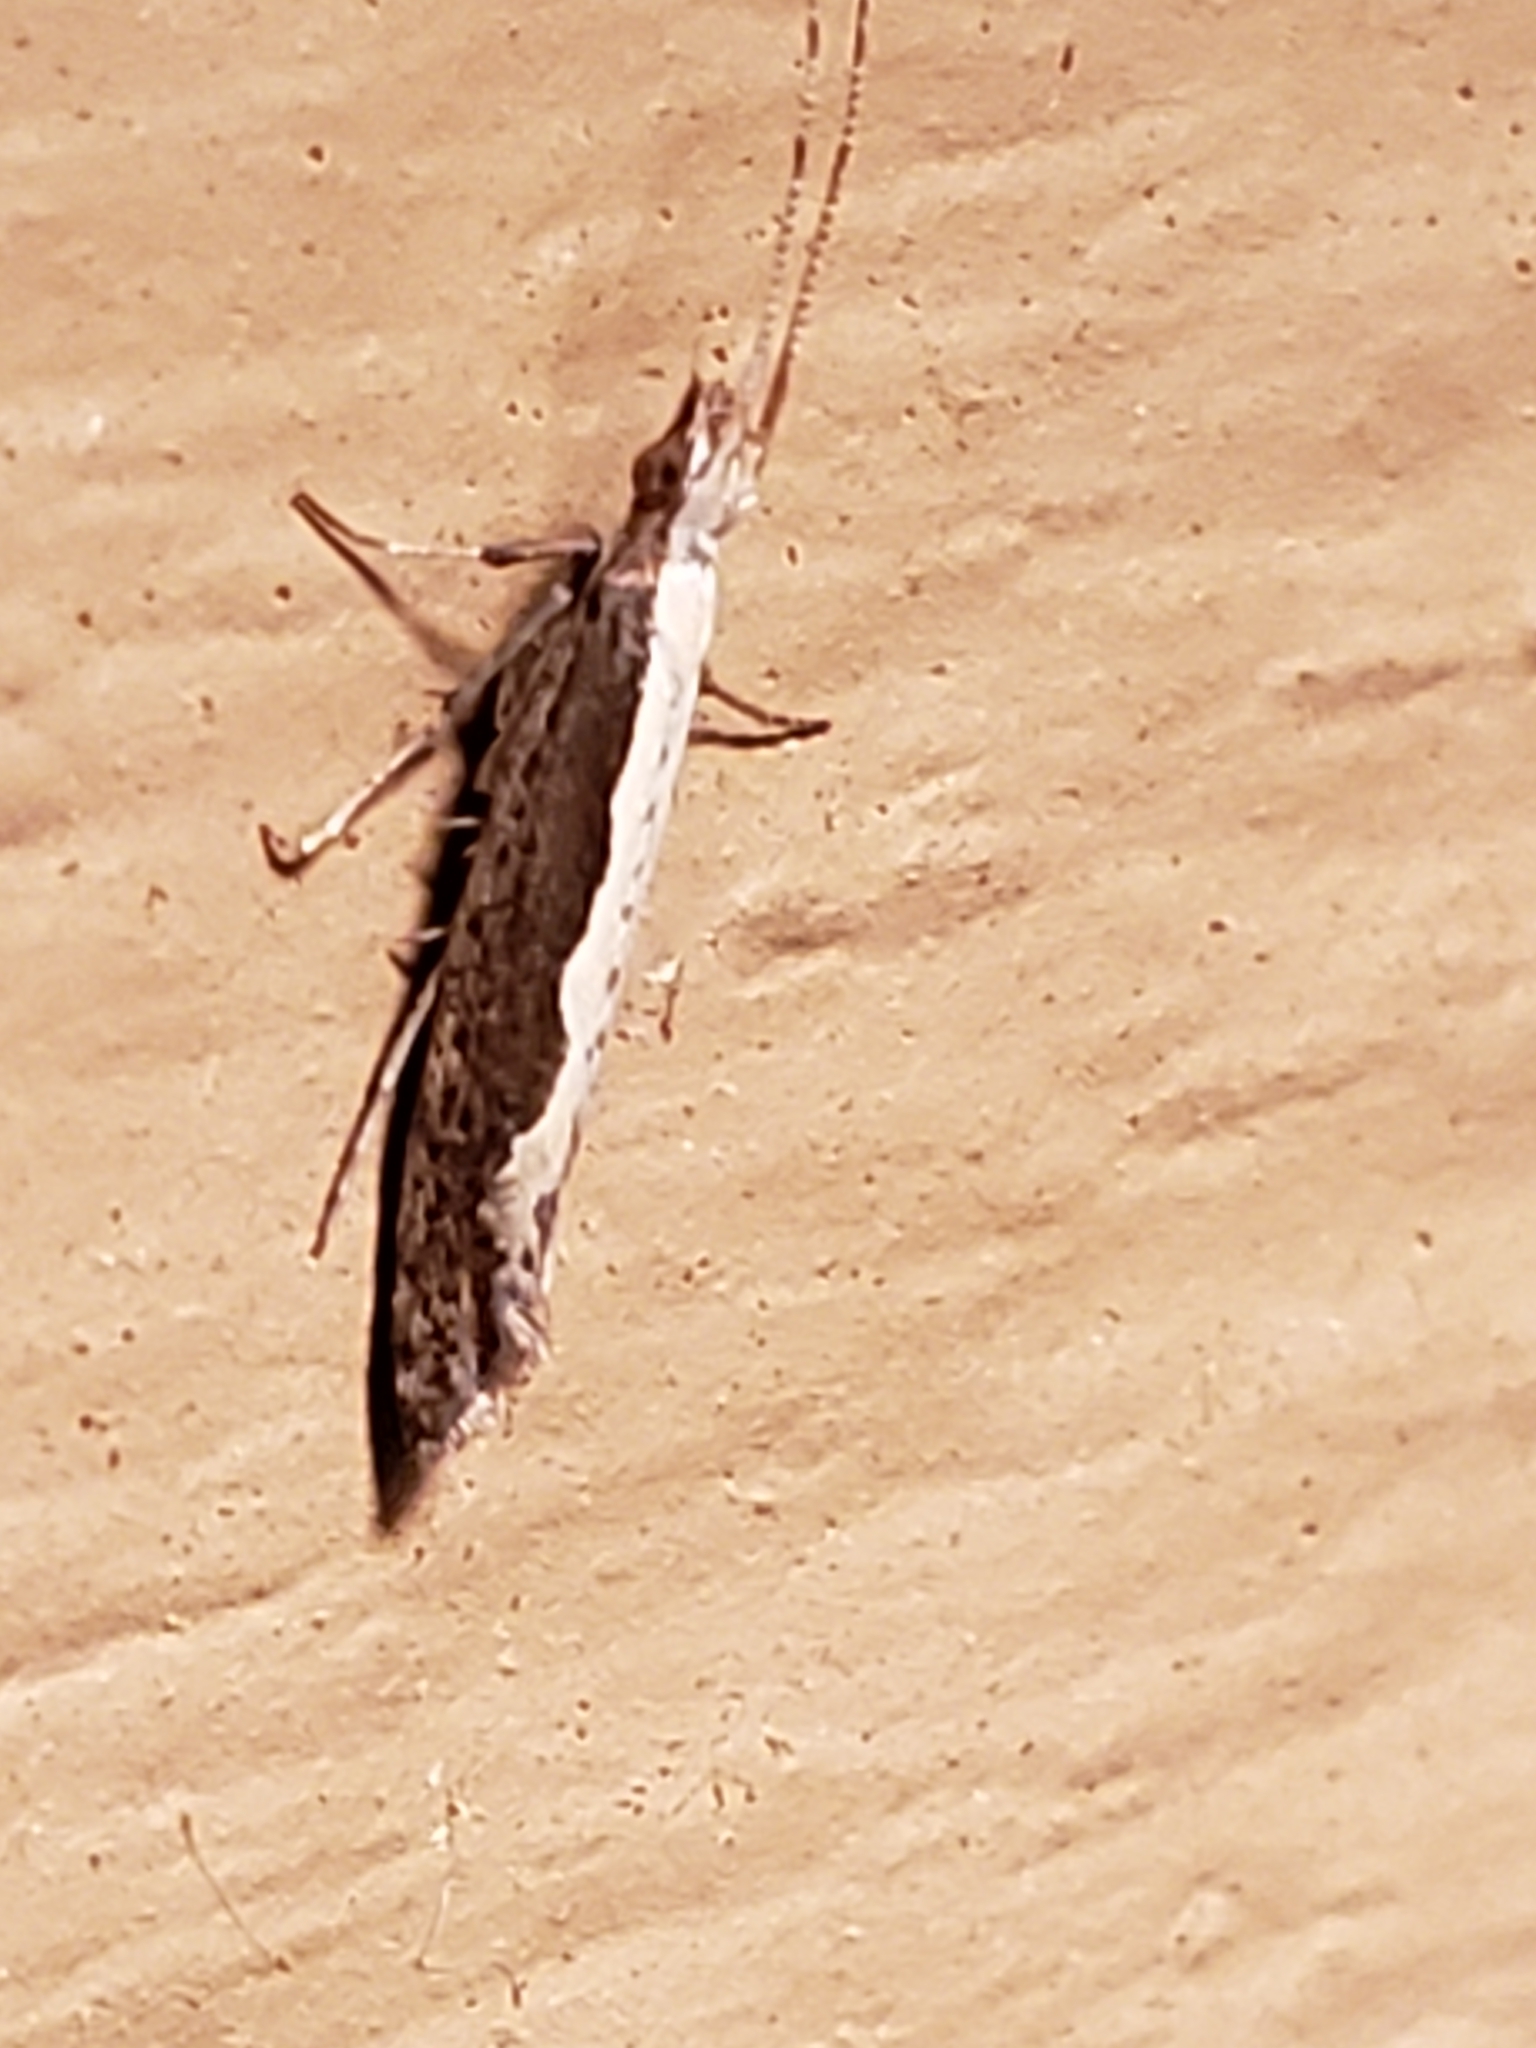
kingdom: Animalia
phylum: Arthropoda
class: Insecta
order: Lepidoptera
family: Plutellidae
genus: Plutella
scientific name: Plutella xylostella
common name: Diamond-back moth
